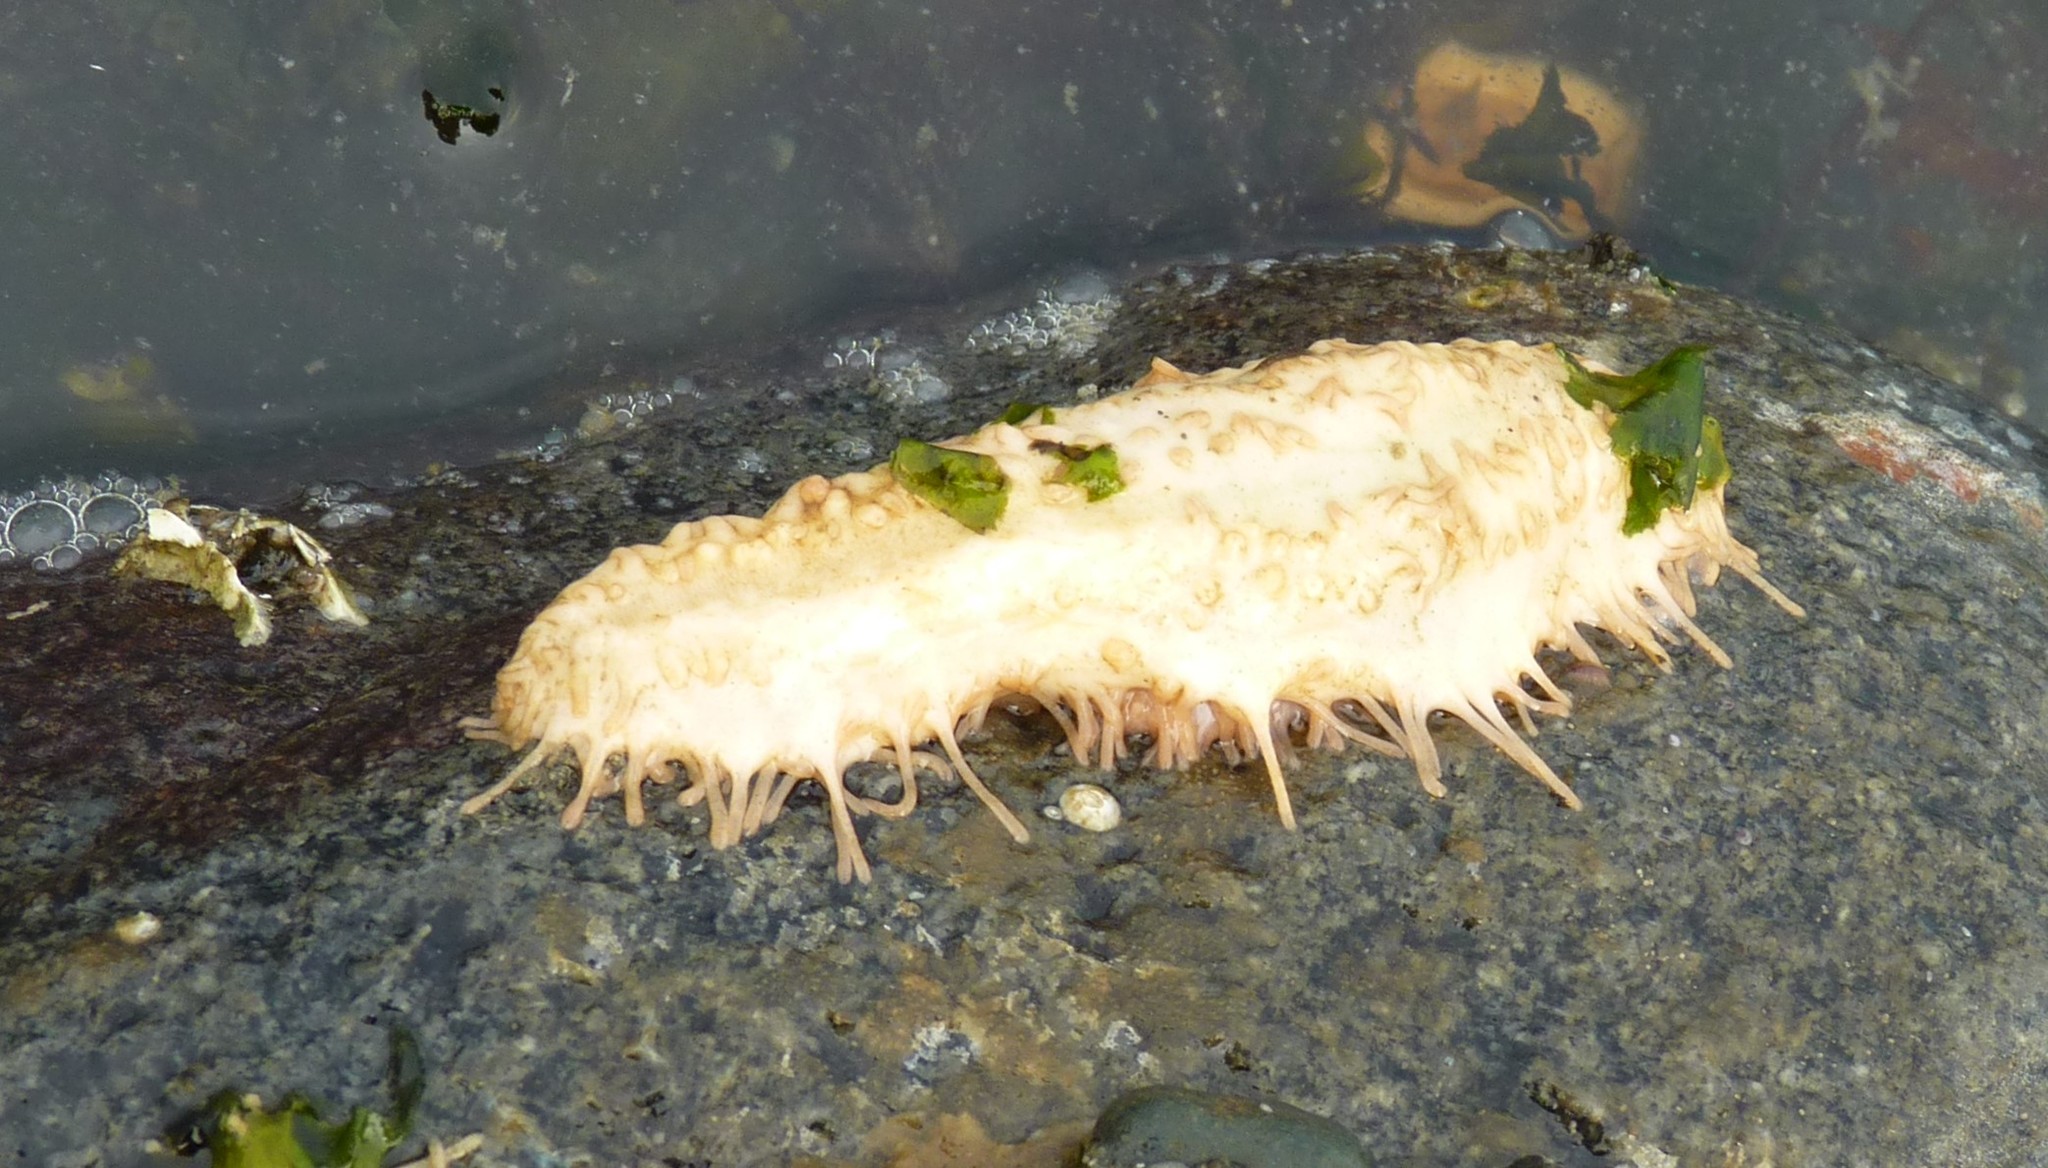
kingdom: Animalia
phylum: Echinodermata
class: Holothuroidea
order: Dendrochirotida
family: Sclerodactylidae
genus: Eupentacta
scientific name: Eupentacta quinquesemita
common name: Pentamerous sea cucumber
